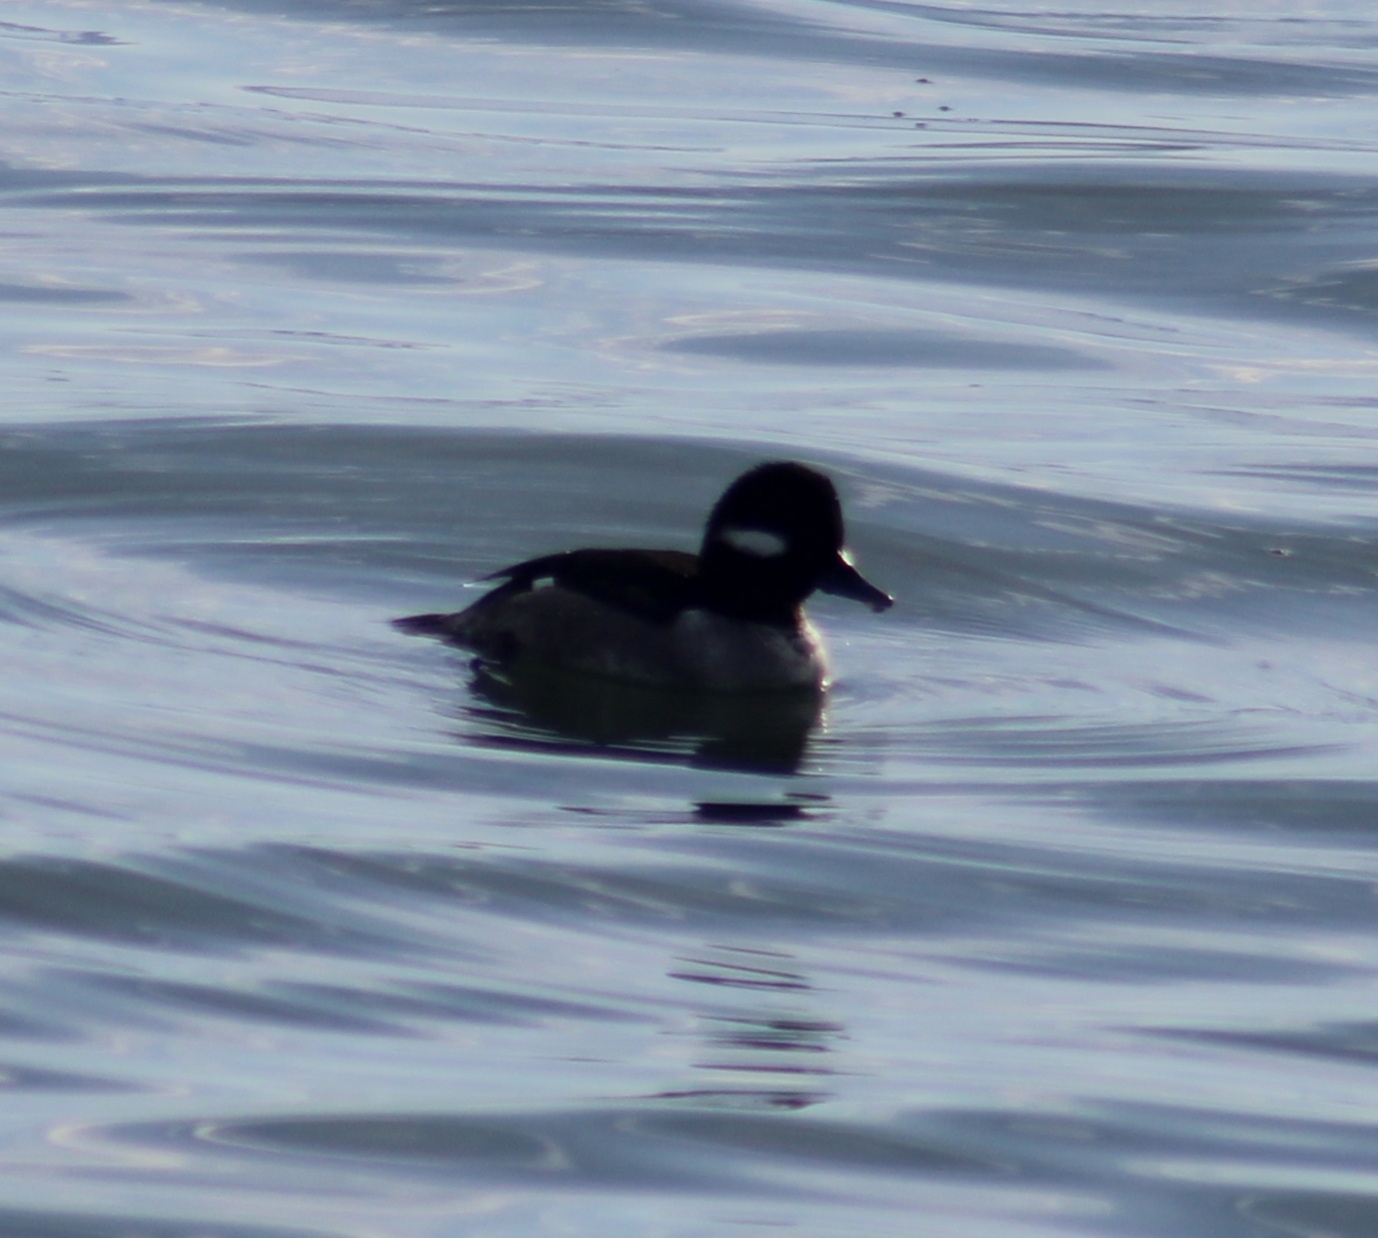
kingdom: Animalia
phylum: Chordata
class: Aves
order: Anseriformes
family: Anatidae
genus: Bucephala
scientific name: Bucephala albeola
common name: Bufflehead
